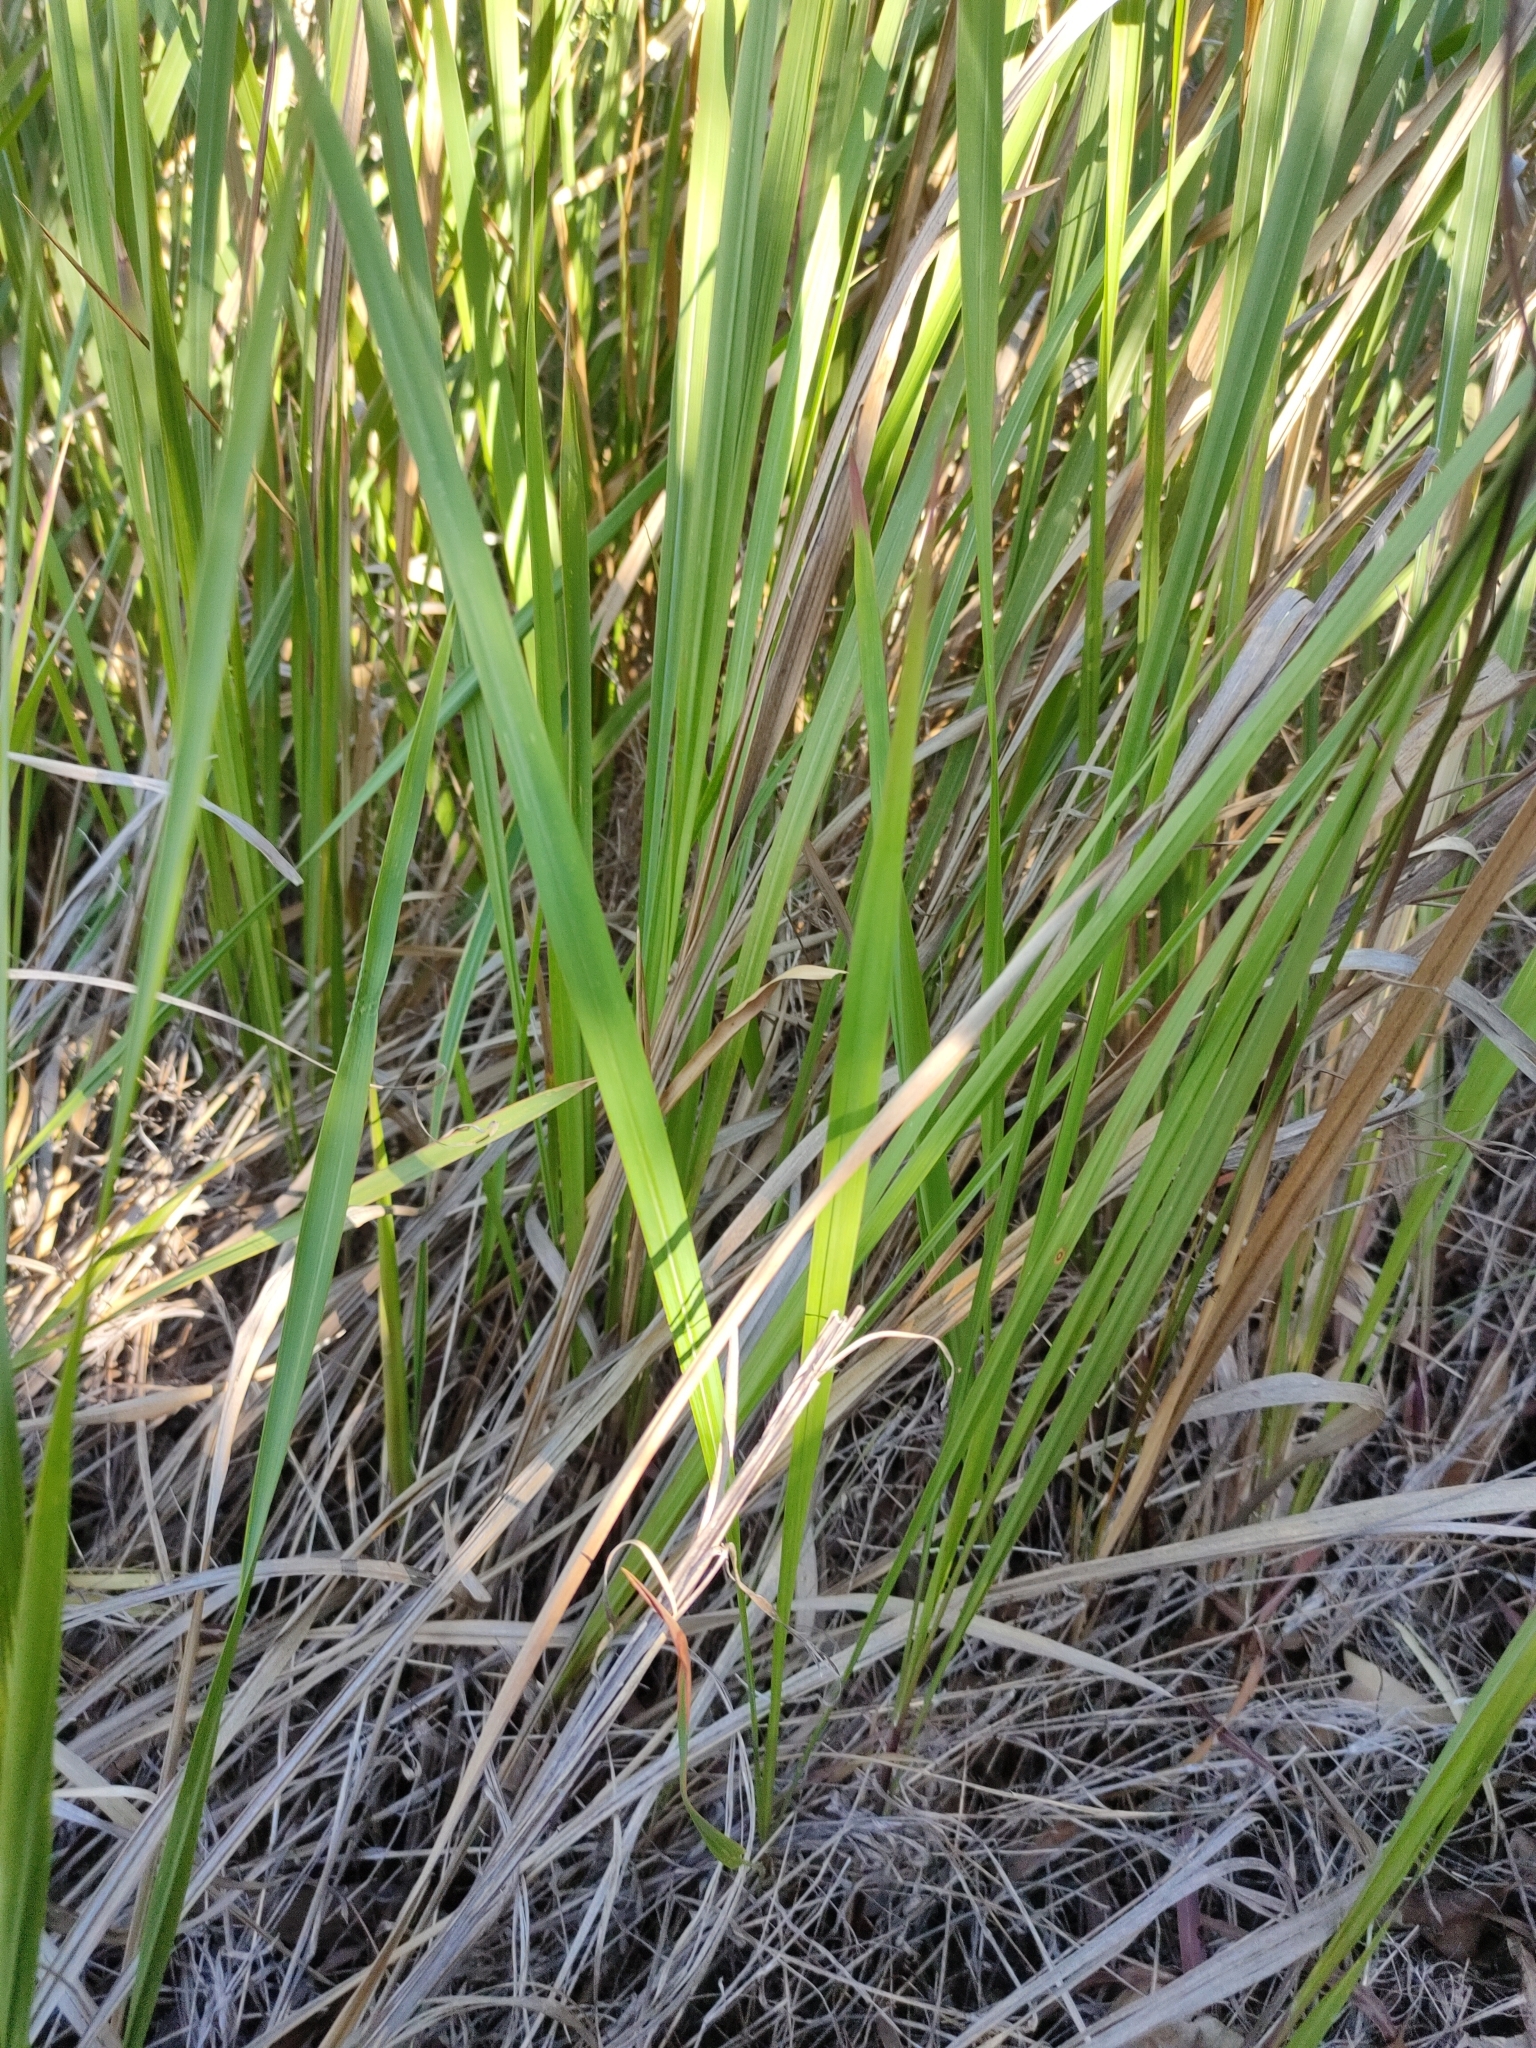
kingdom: Plantae
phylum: Tracheophyta
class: Liliopsida
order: Poales
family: Poaceae
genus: Imperata
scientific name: Imperata cylindrica
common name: Cogongrass
